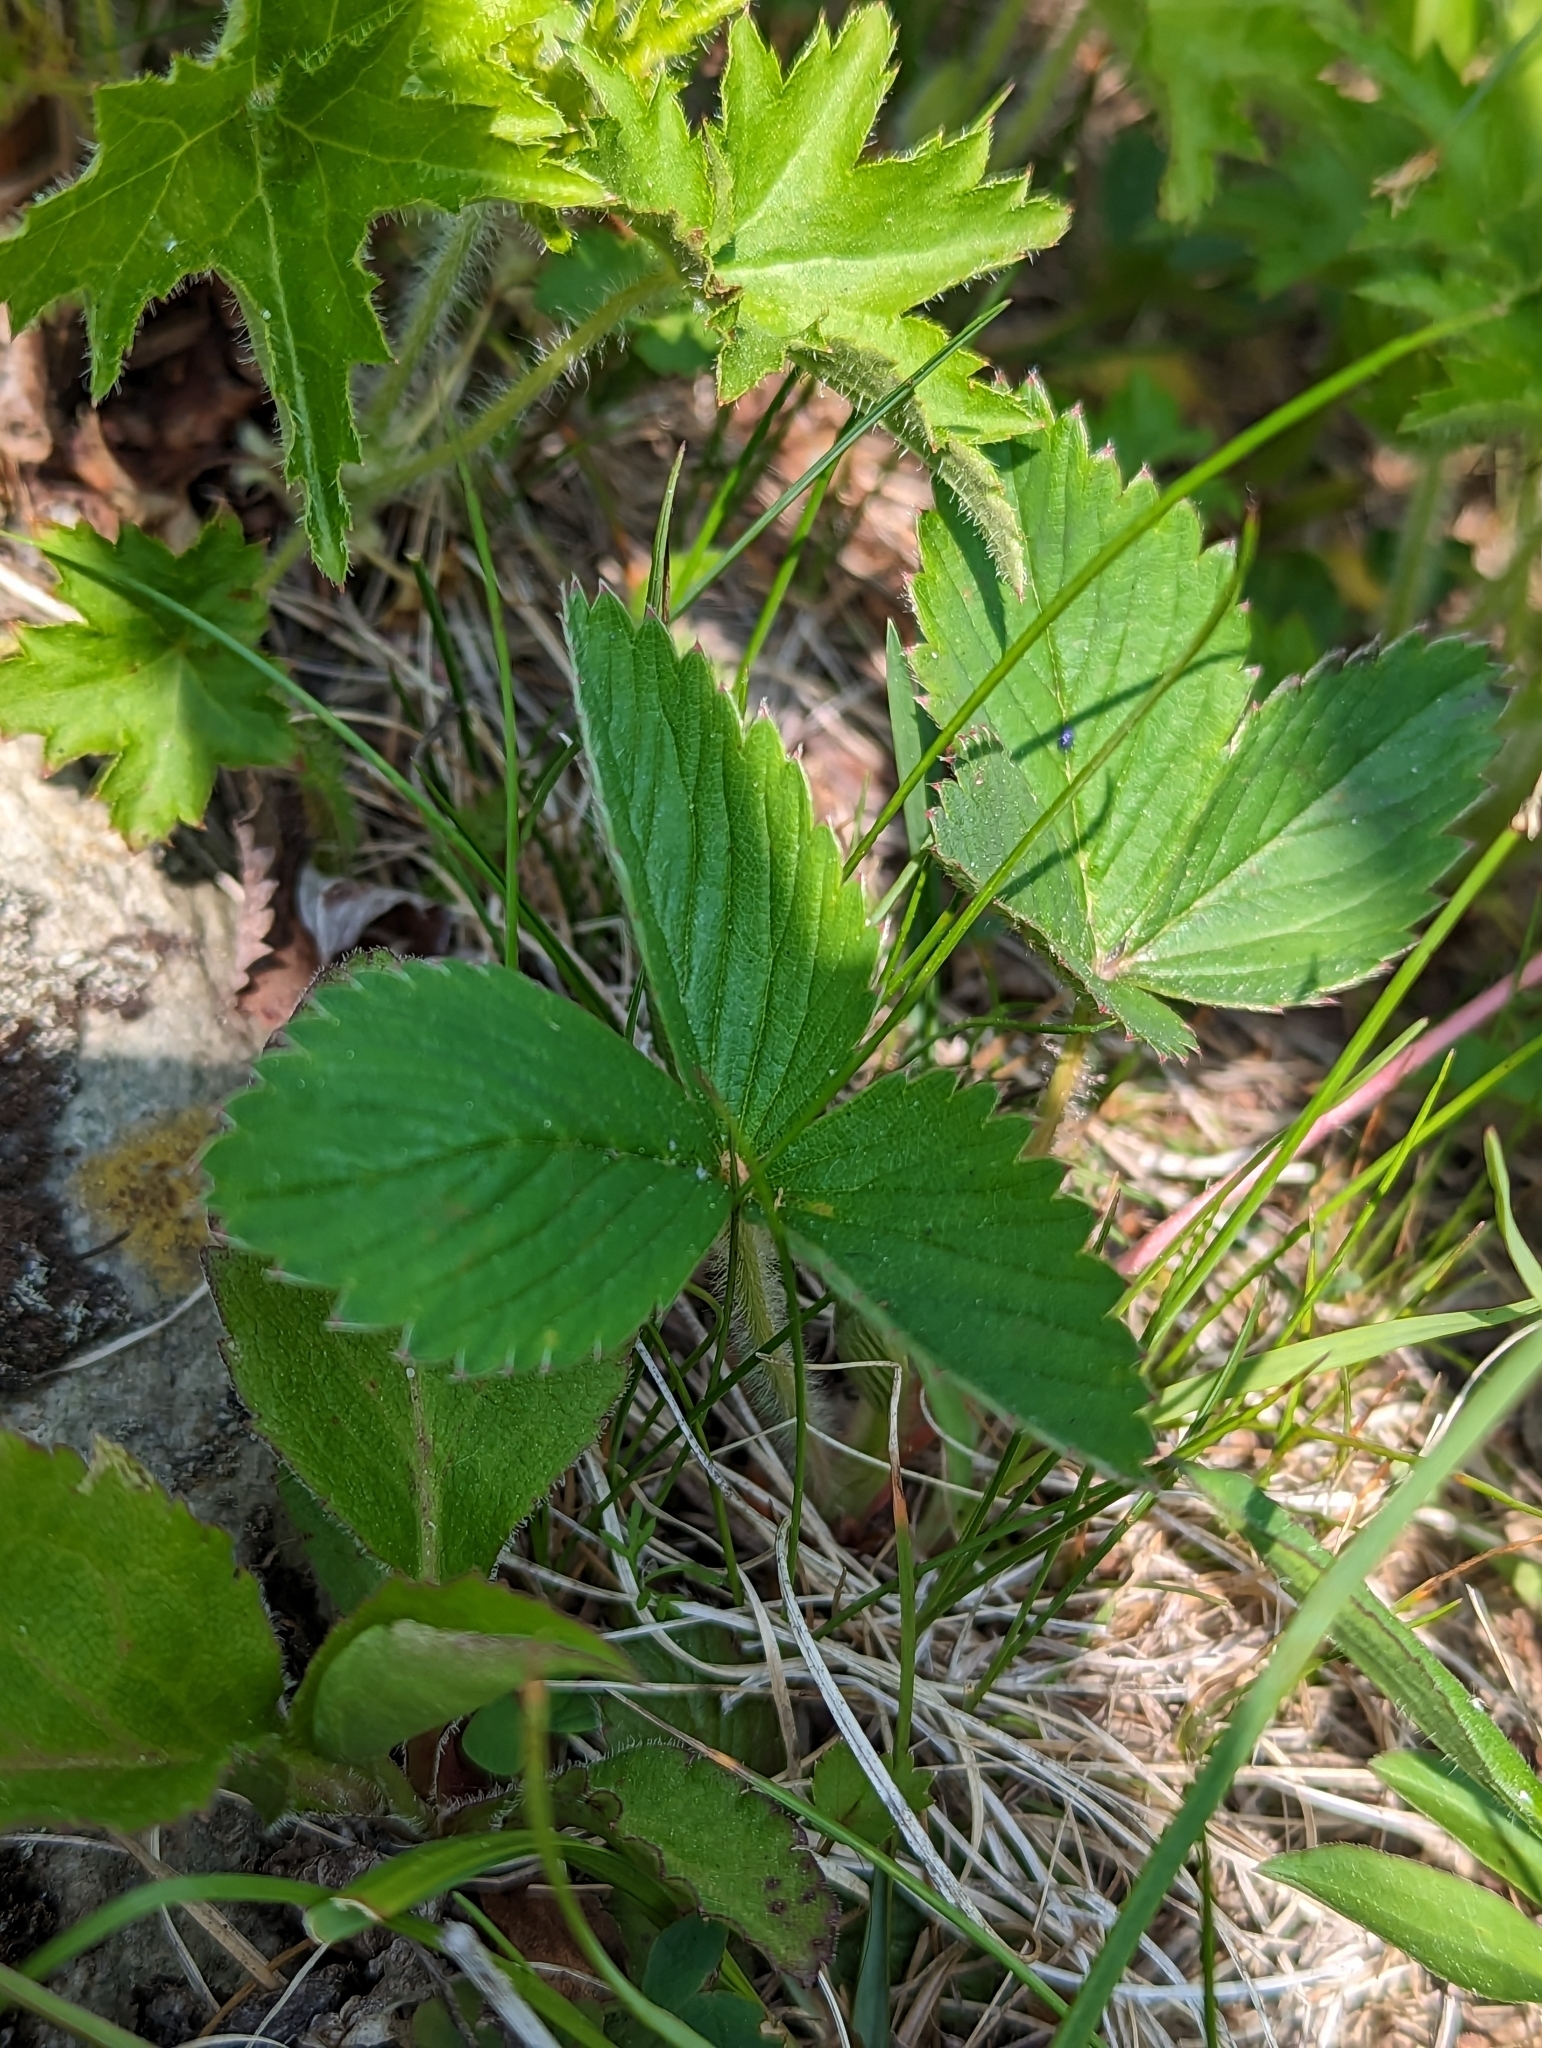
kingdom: Plantae
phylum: Tracheophyta
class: Magnoliopsida
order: Rosales
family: Rosaceae
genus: Fragaria
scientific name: Fragaria virginiana
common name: Thickleaved wild strawberry
